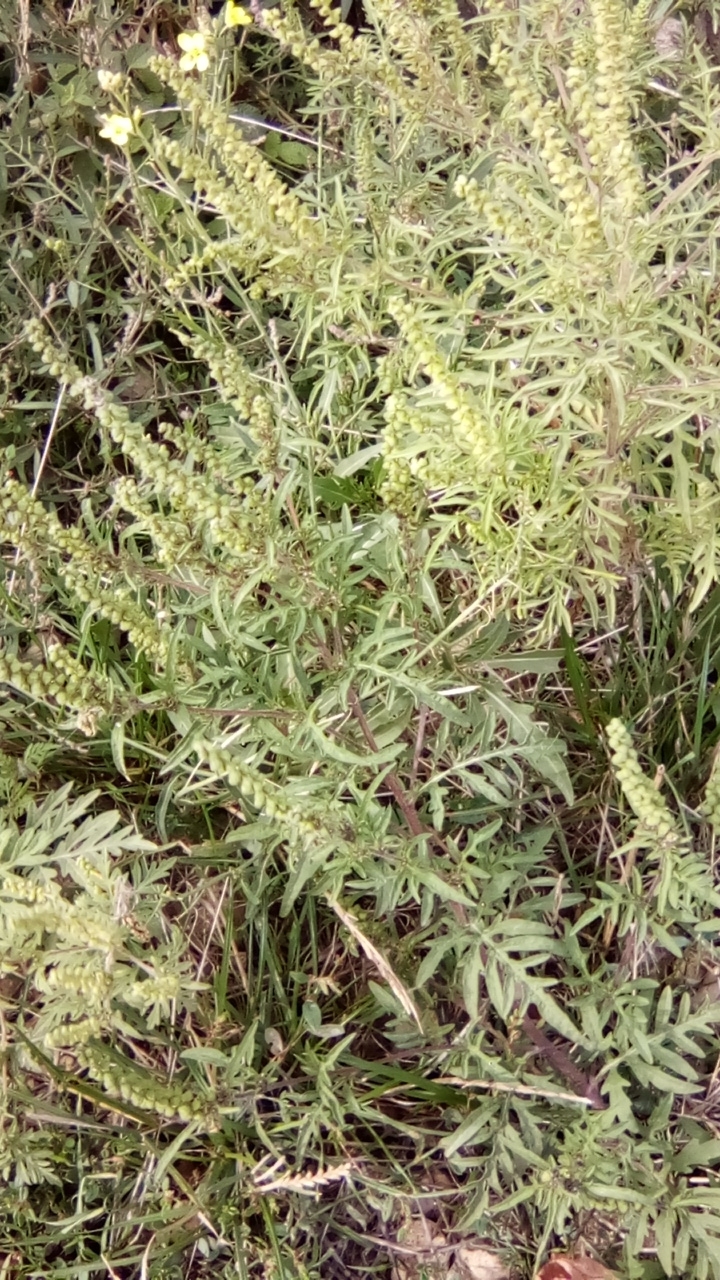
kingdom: Plantae
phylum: Tracheophyta
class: Magnoliopsida
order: Asterales
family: Asteraceae
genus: Ambrosia
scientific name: Ambrosia artemisiifolia
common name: Annual ragweed
